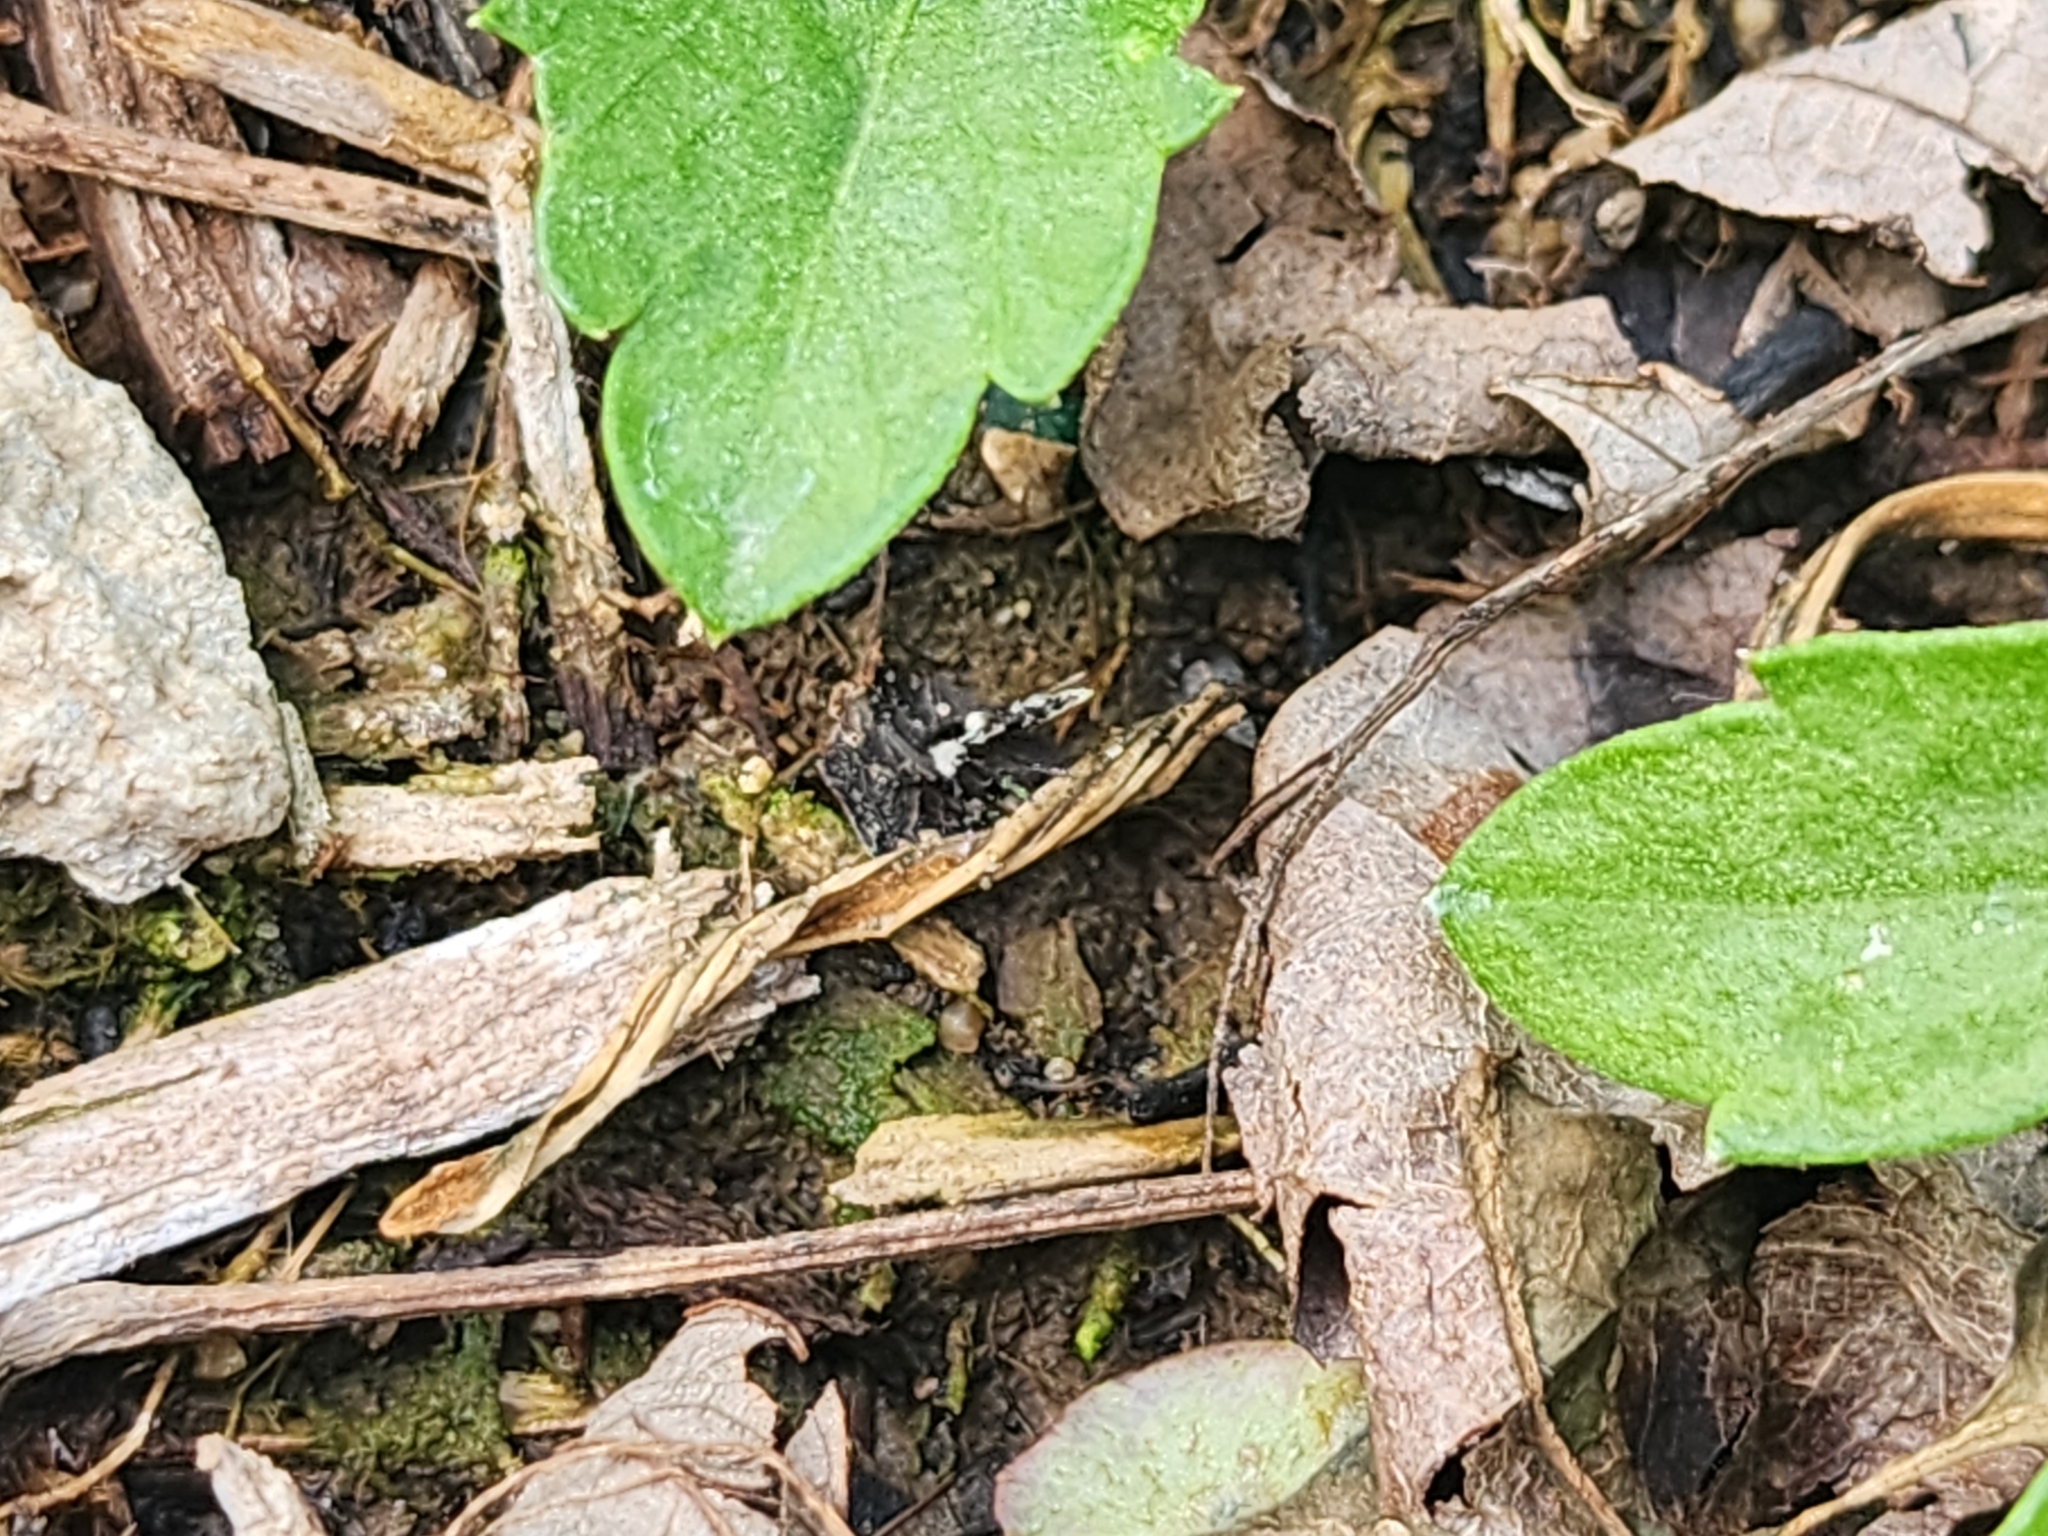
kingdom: Animalia
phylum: Arthropoda
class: Insecta
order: Diptera
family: Psychodidae
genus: Lepiseodina
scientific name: Lepiseodina
